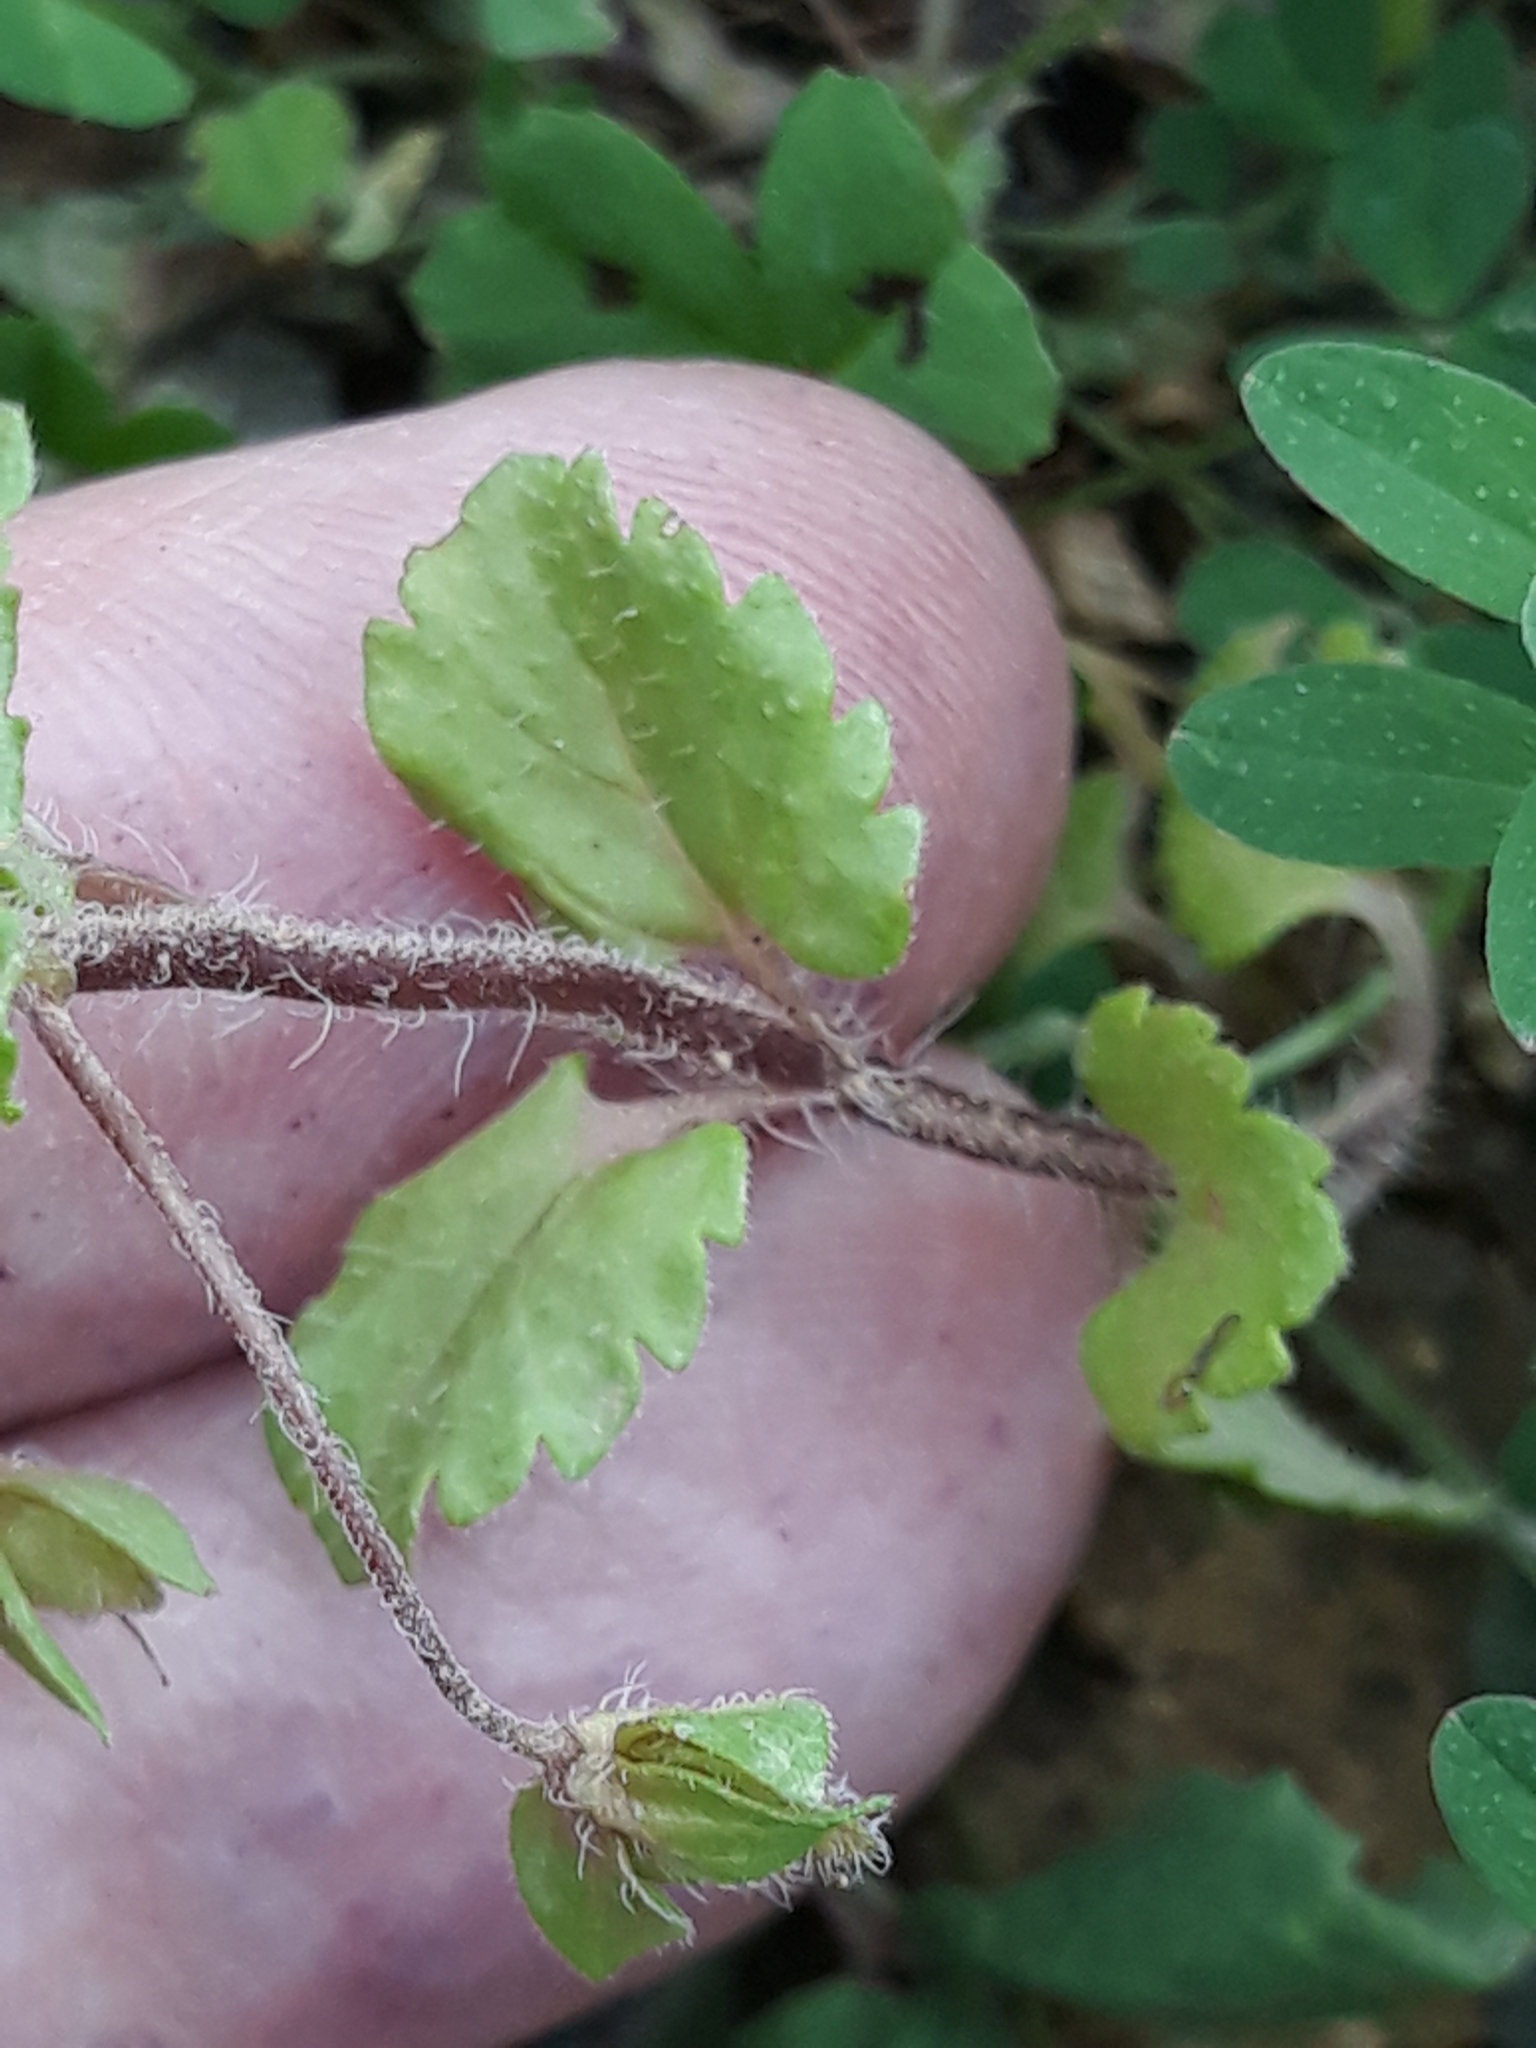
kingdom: Plantae
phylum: Tracheophyta
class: Magnoliopsida
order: Lamiales
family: Plantaginaceae
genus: Veronica
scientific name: Veronica persica
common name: Common field-speedwell
